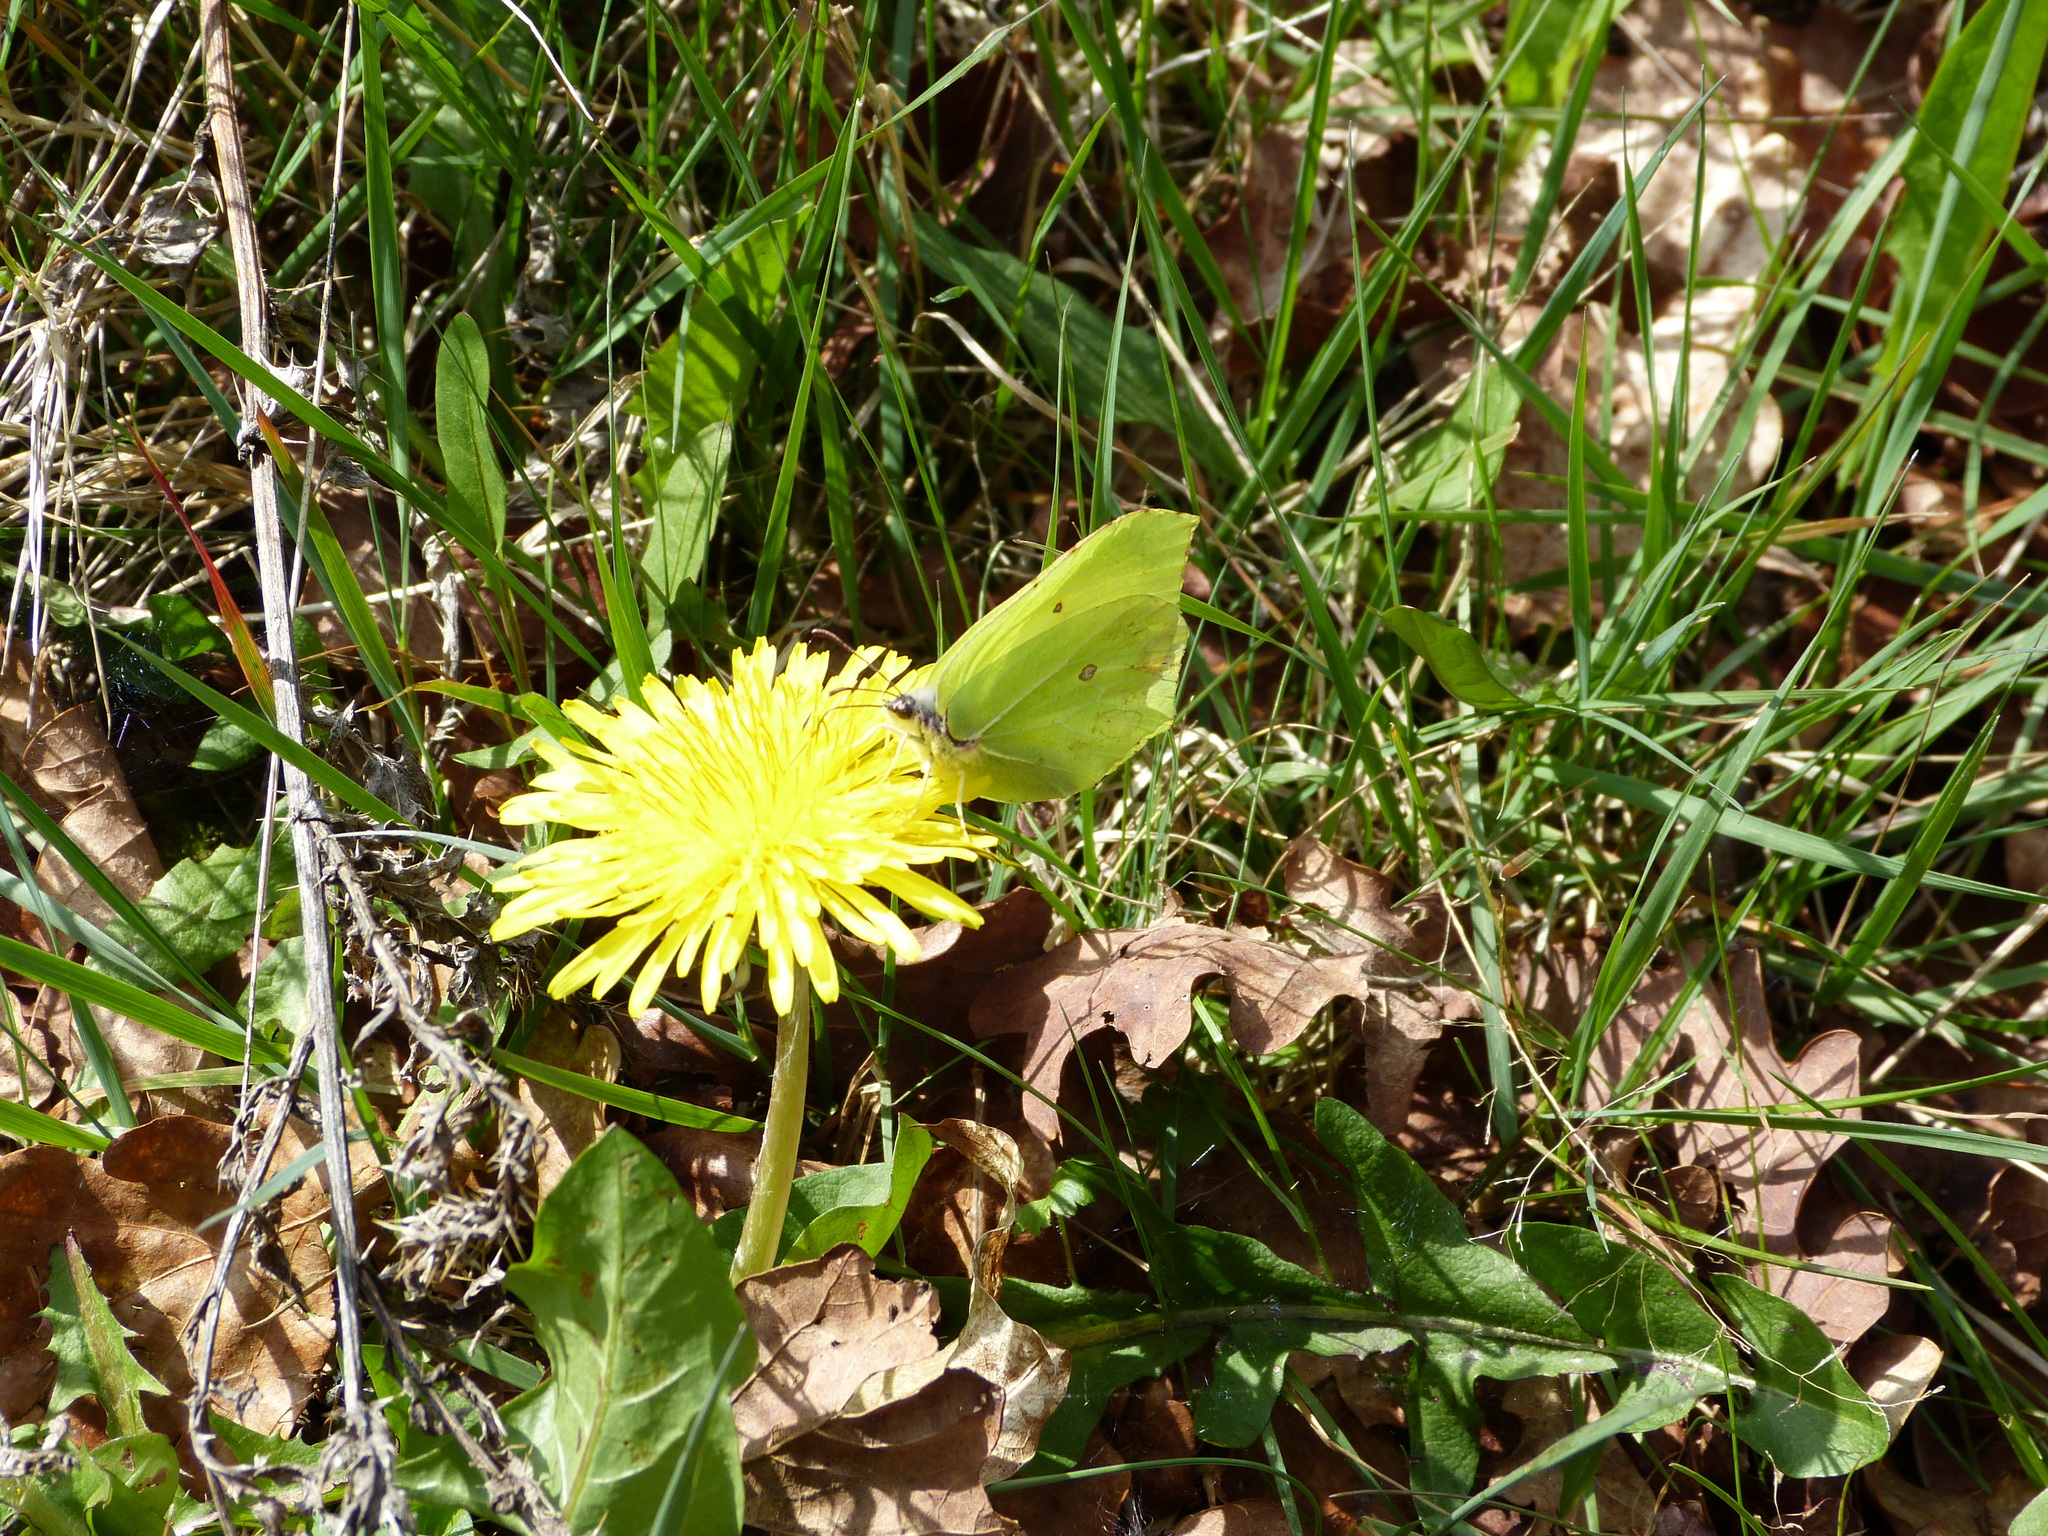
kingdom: Animalia
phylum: Arthropoda
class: Insecta
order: Lepidoptera
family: Pieridae
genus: Gonepteryx
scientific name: Gonepteryx rhamni
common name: Brimstone
